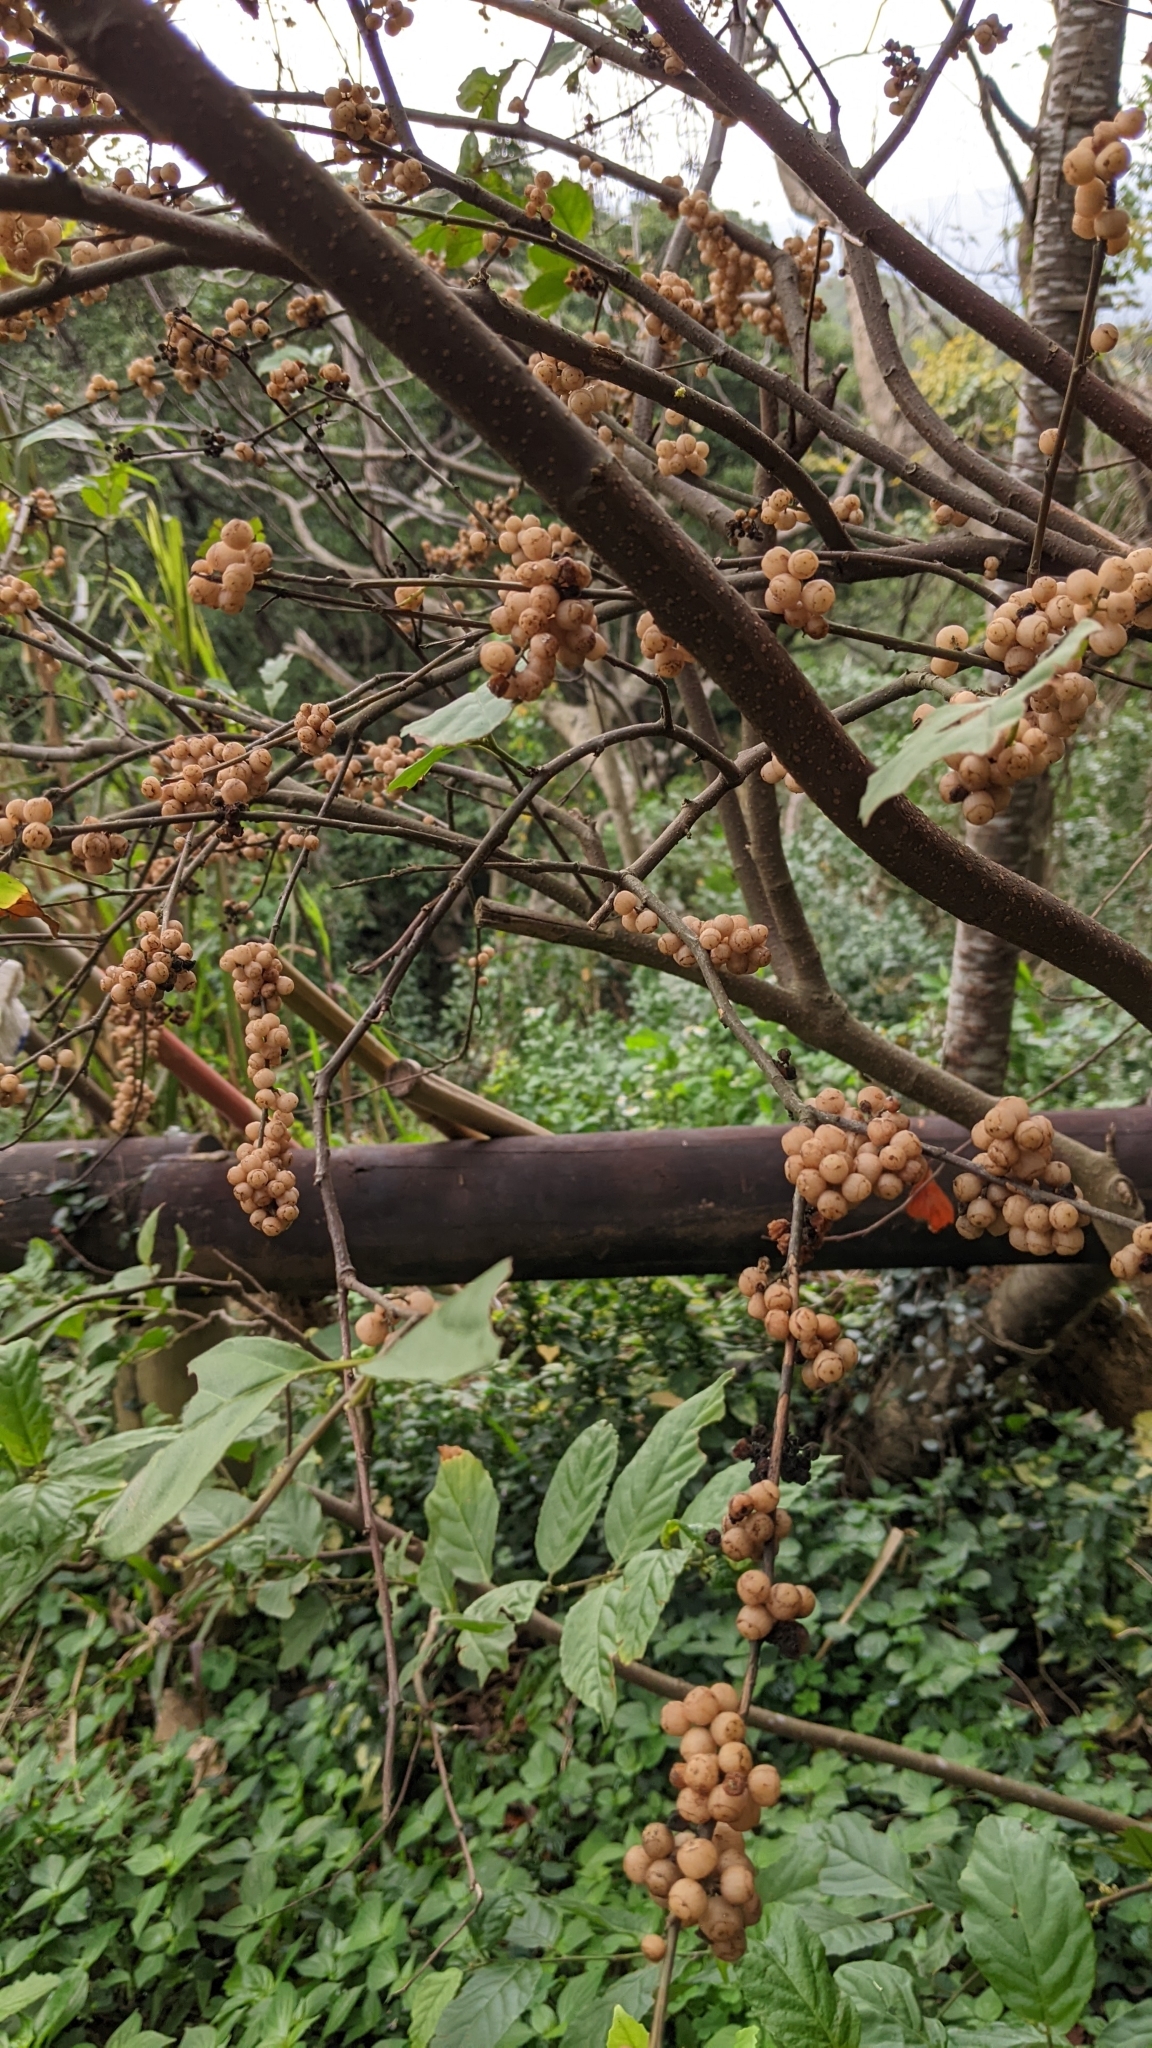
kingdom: Plantae
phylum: Tracheophyta
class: Magnoliopsida
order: Ericales
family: Primulaceae
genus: Maesa
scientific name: Maesa perlaria
